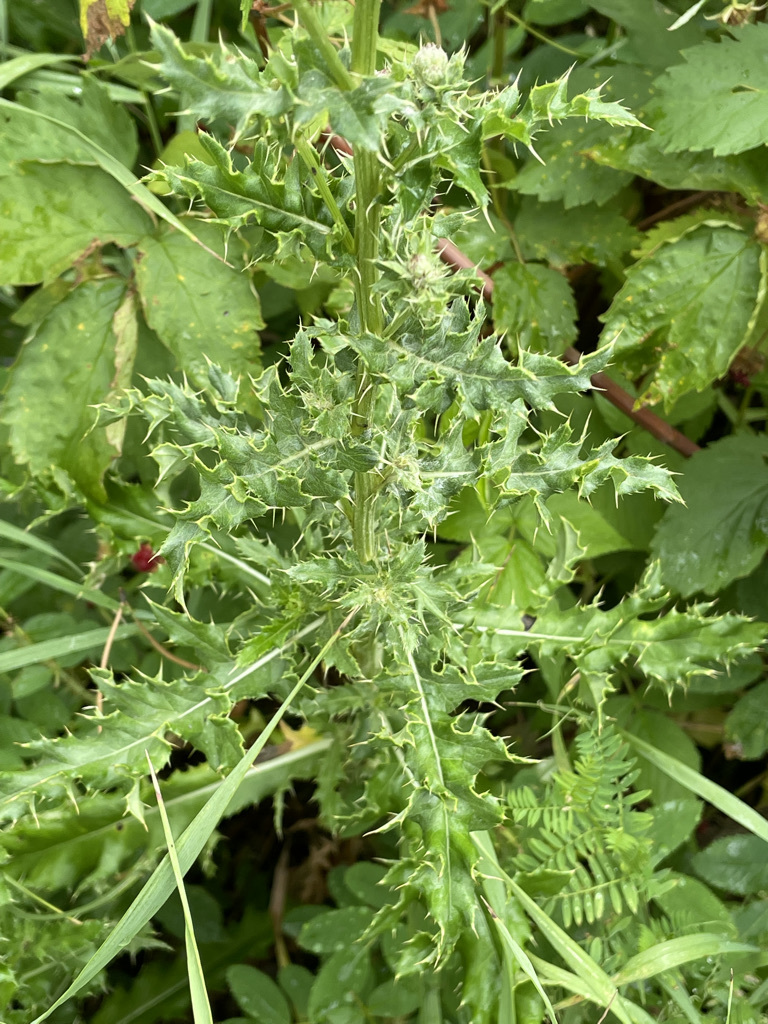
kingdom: Plantae
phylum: Tracheophyta
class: Magnoliopsida
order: Asterales
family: Asteraceae
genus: Cirsium
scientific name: Cirsium arvense
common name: Creeping thistle
